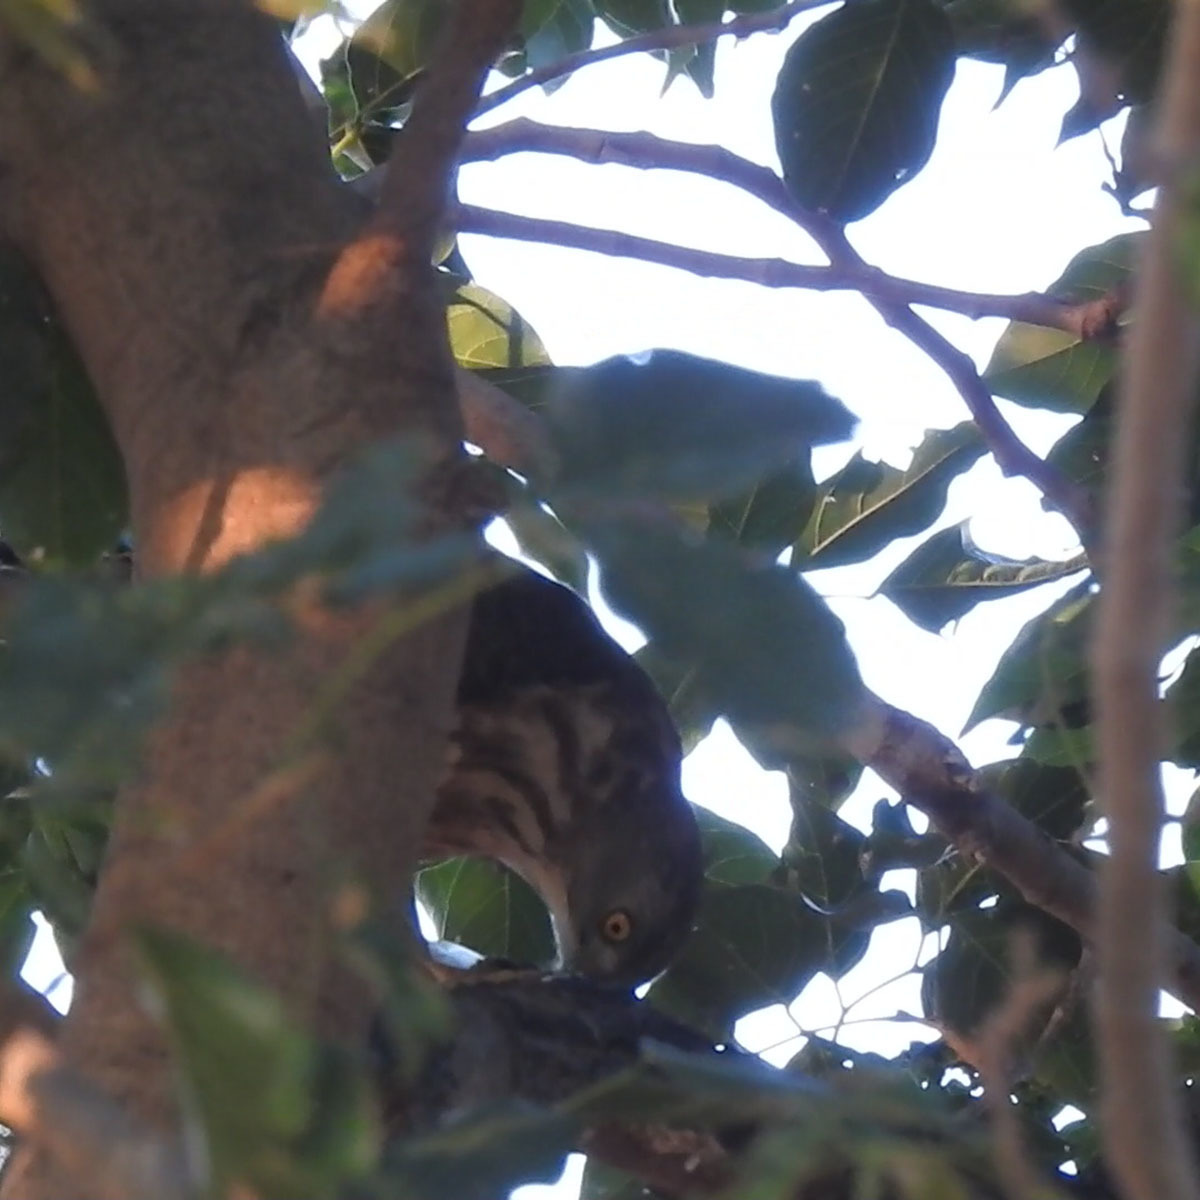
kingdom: Animalia
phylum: Chordata
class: Aves
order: Accipitriformes
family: Accipitridae
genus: Accipiter
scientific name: Accipiter virgatus
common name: Besra
